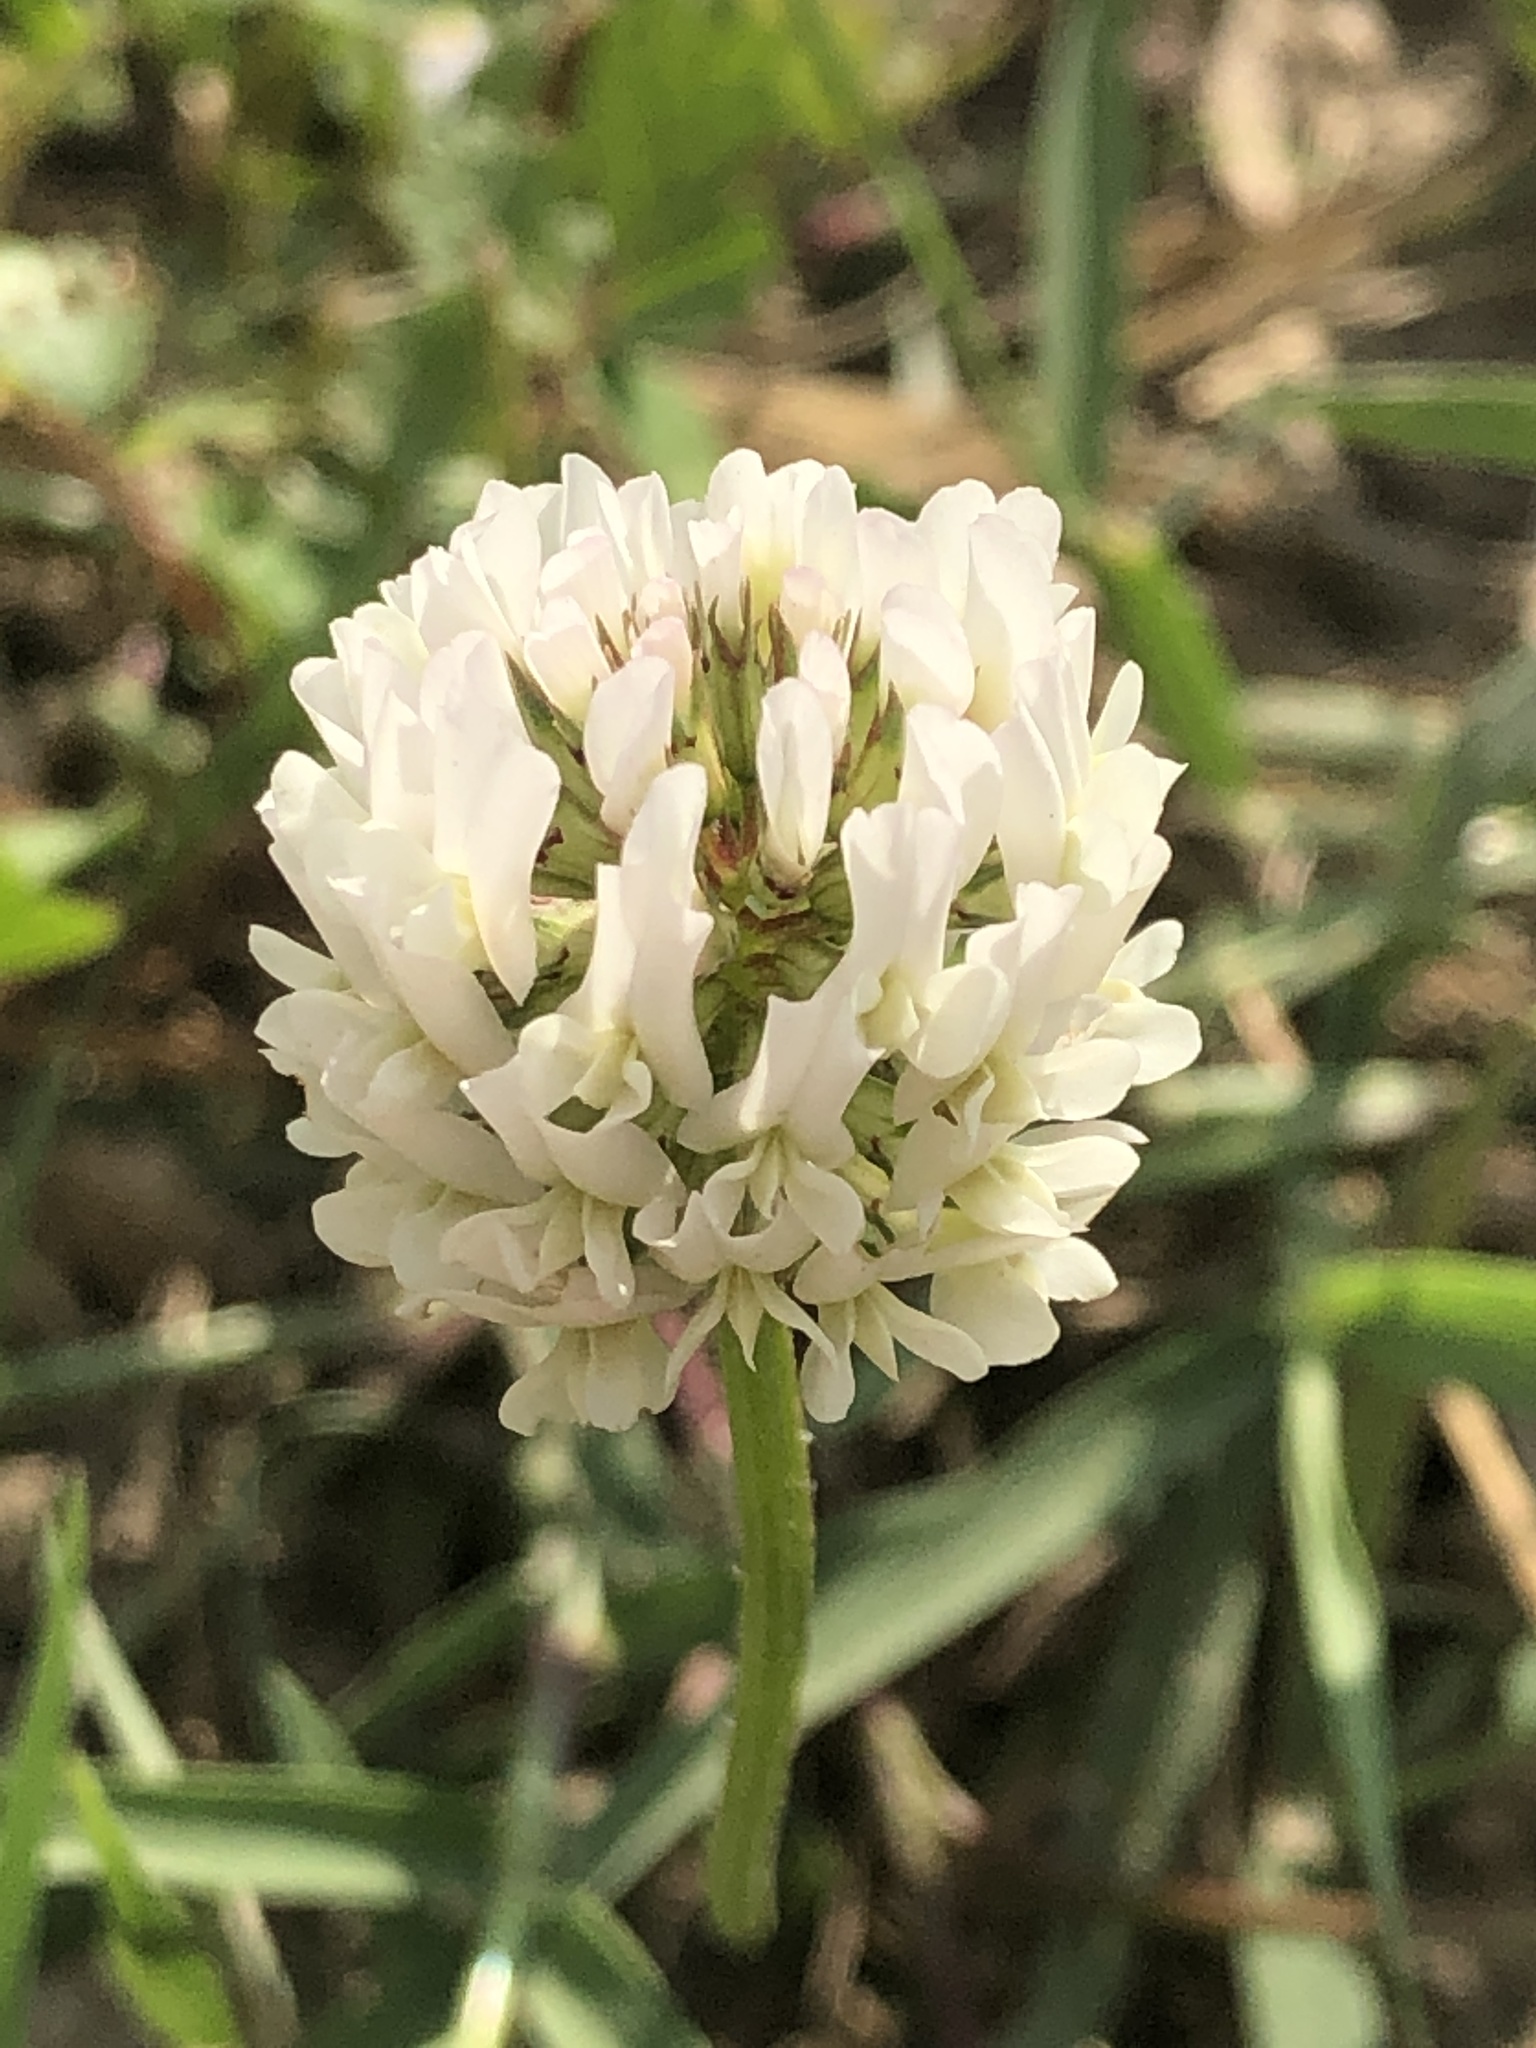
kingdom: Plantae
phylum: Tracheophyta
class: Magnoliopsida
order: Fabales
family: Fabaceae
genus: Trifolium
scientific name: Trifolium repens
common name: White clover
